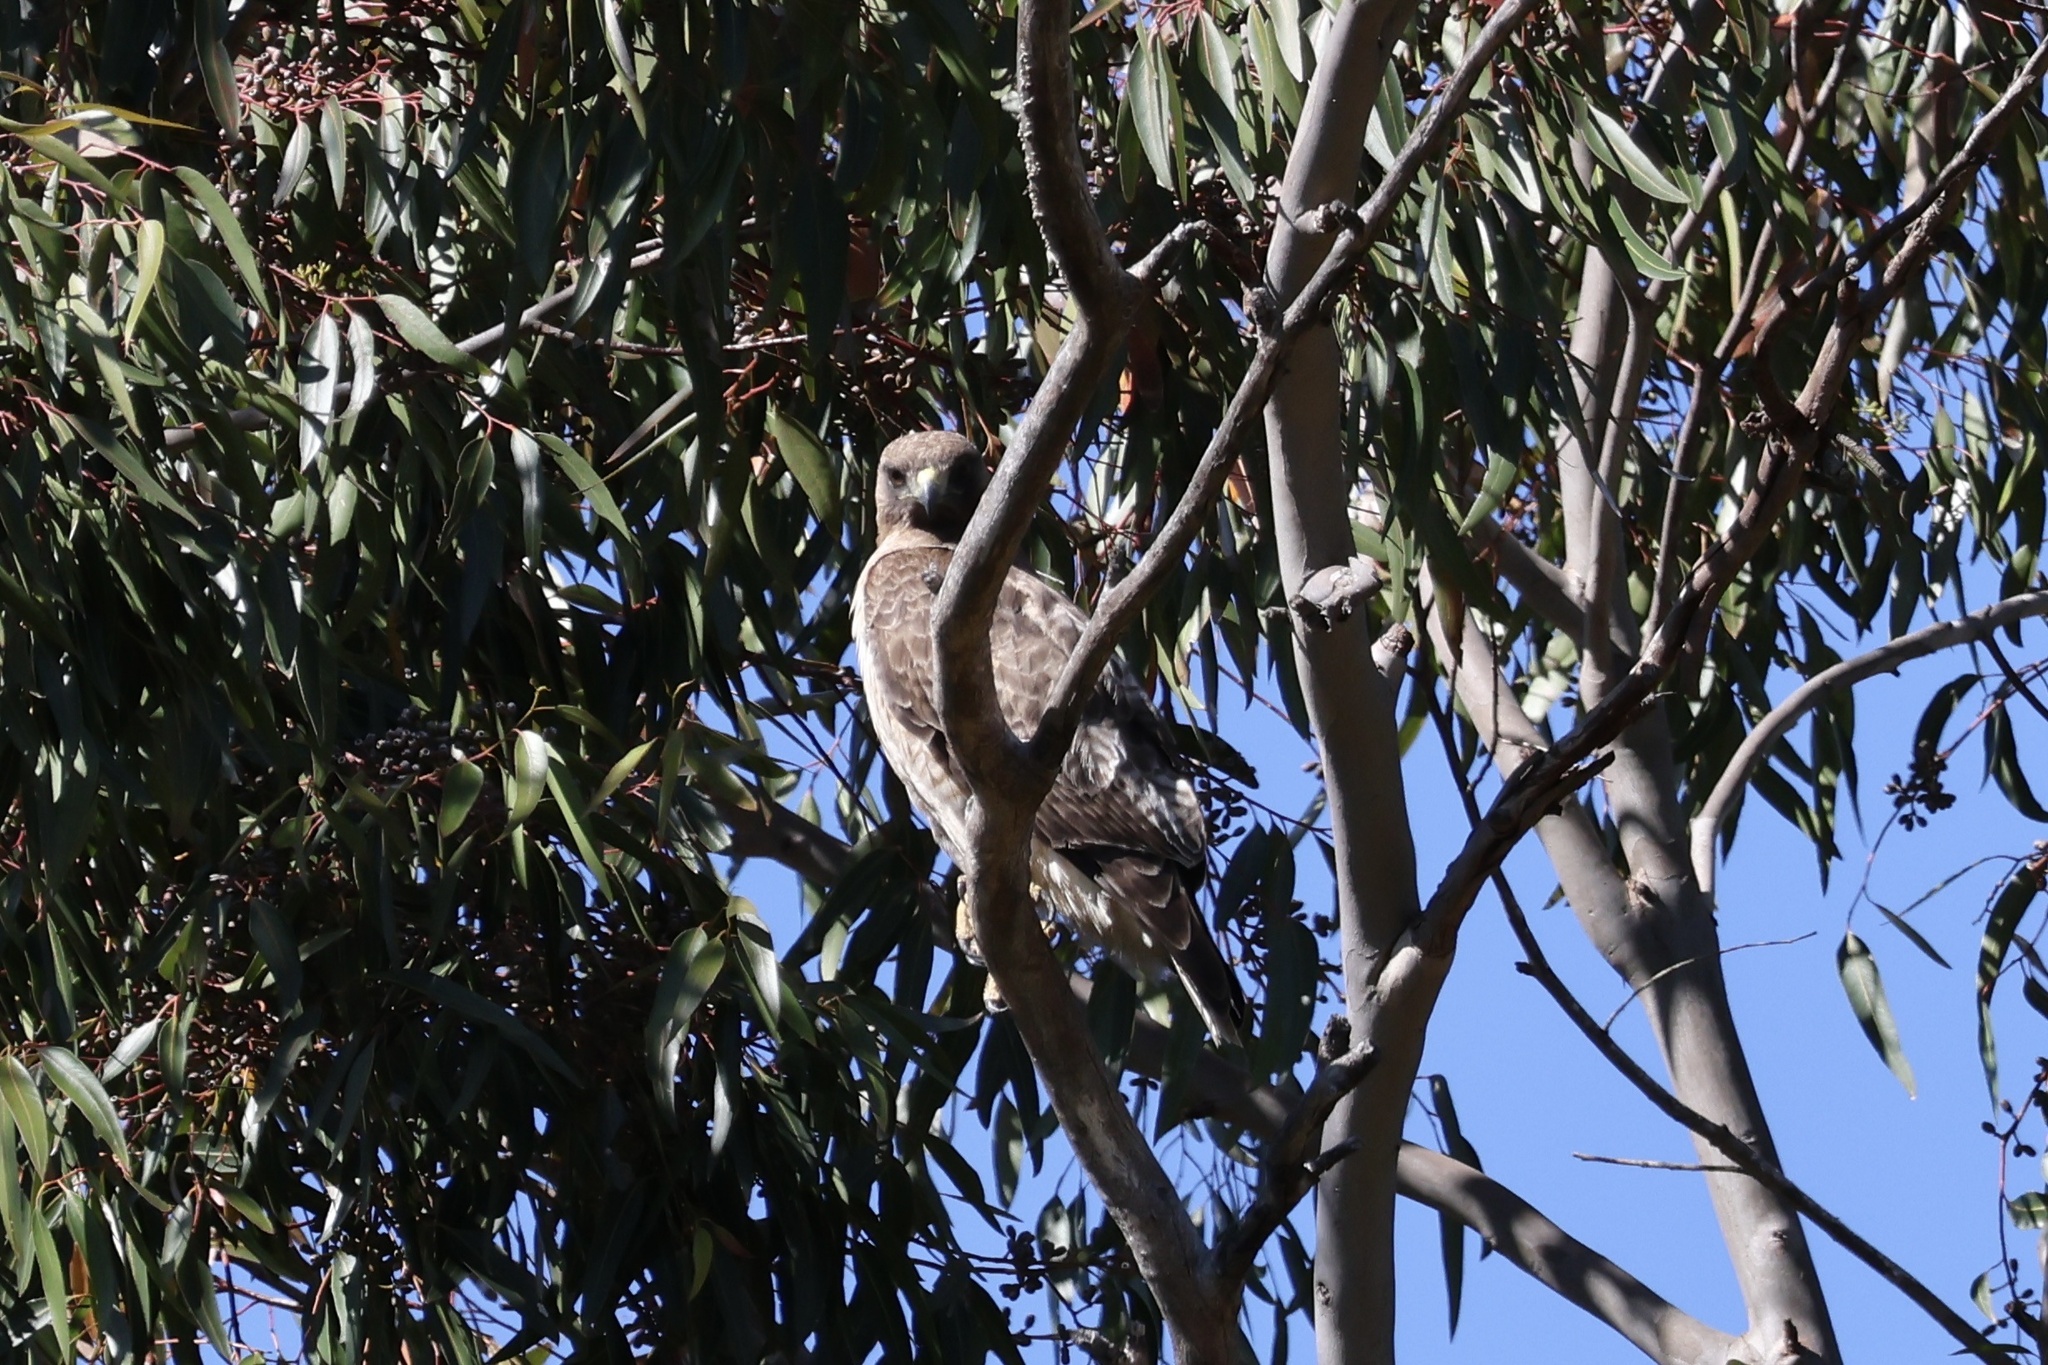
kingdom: Animalia
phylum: Chordata
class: Aves
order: Accipitriformes
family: Accipitridae
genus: Buteo
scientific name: Buteo jamaicensis
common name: Red-tailed hawk
